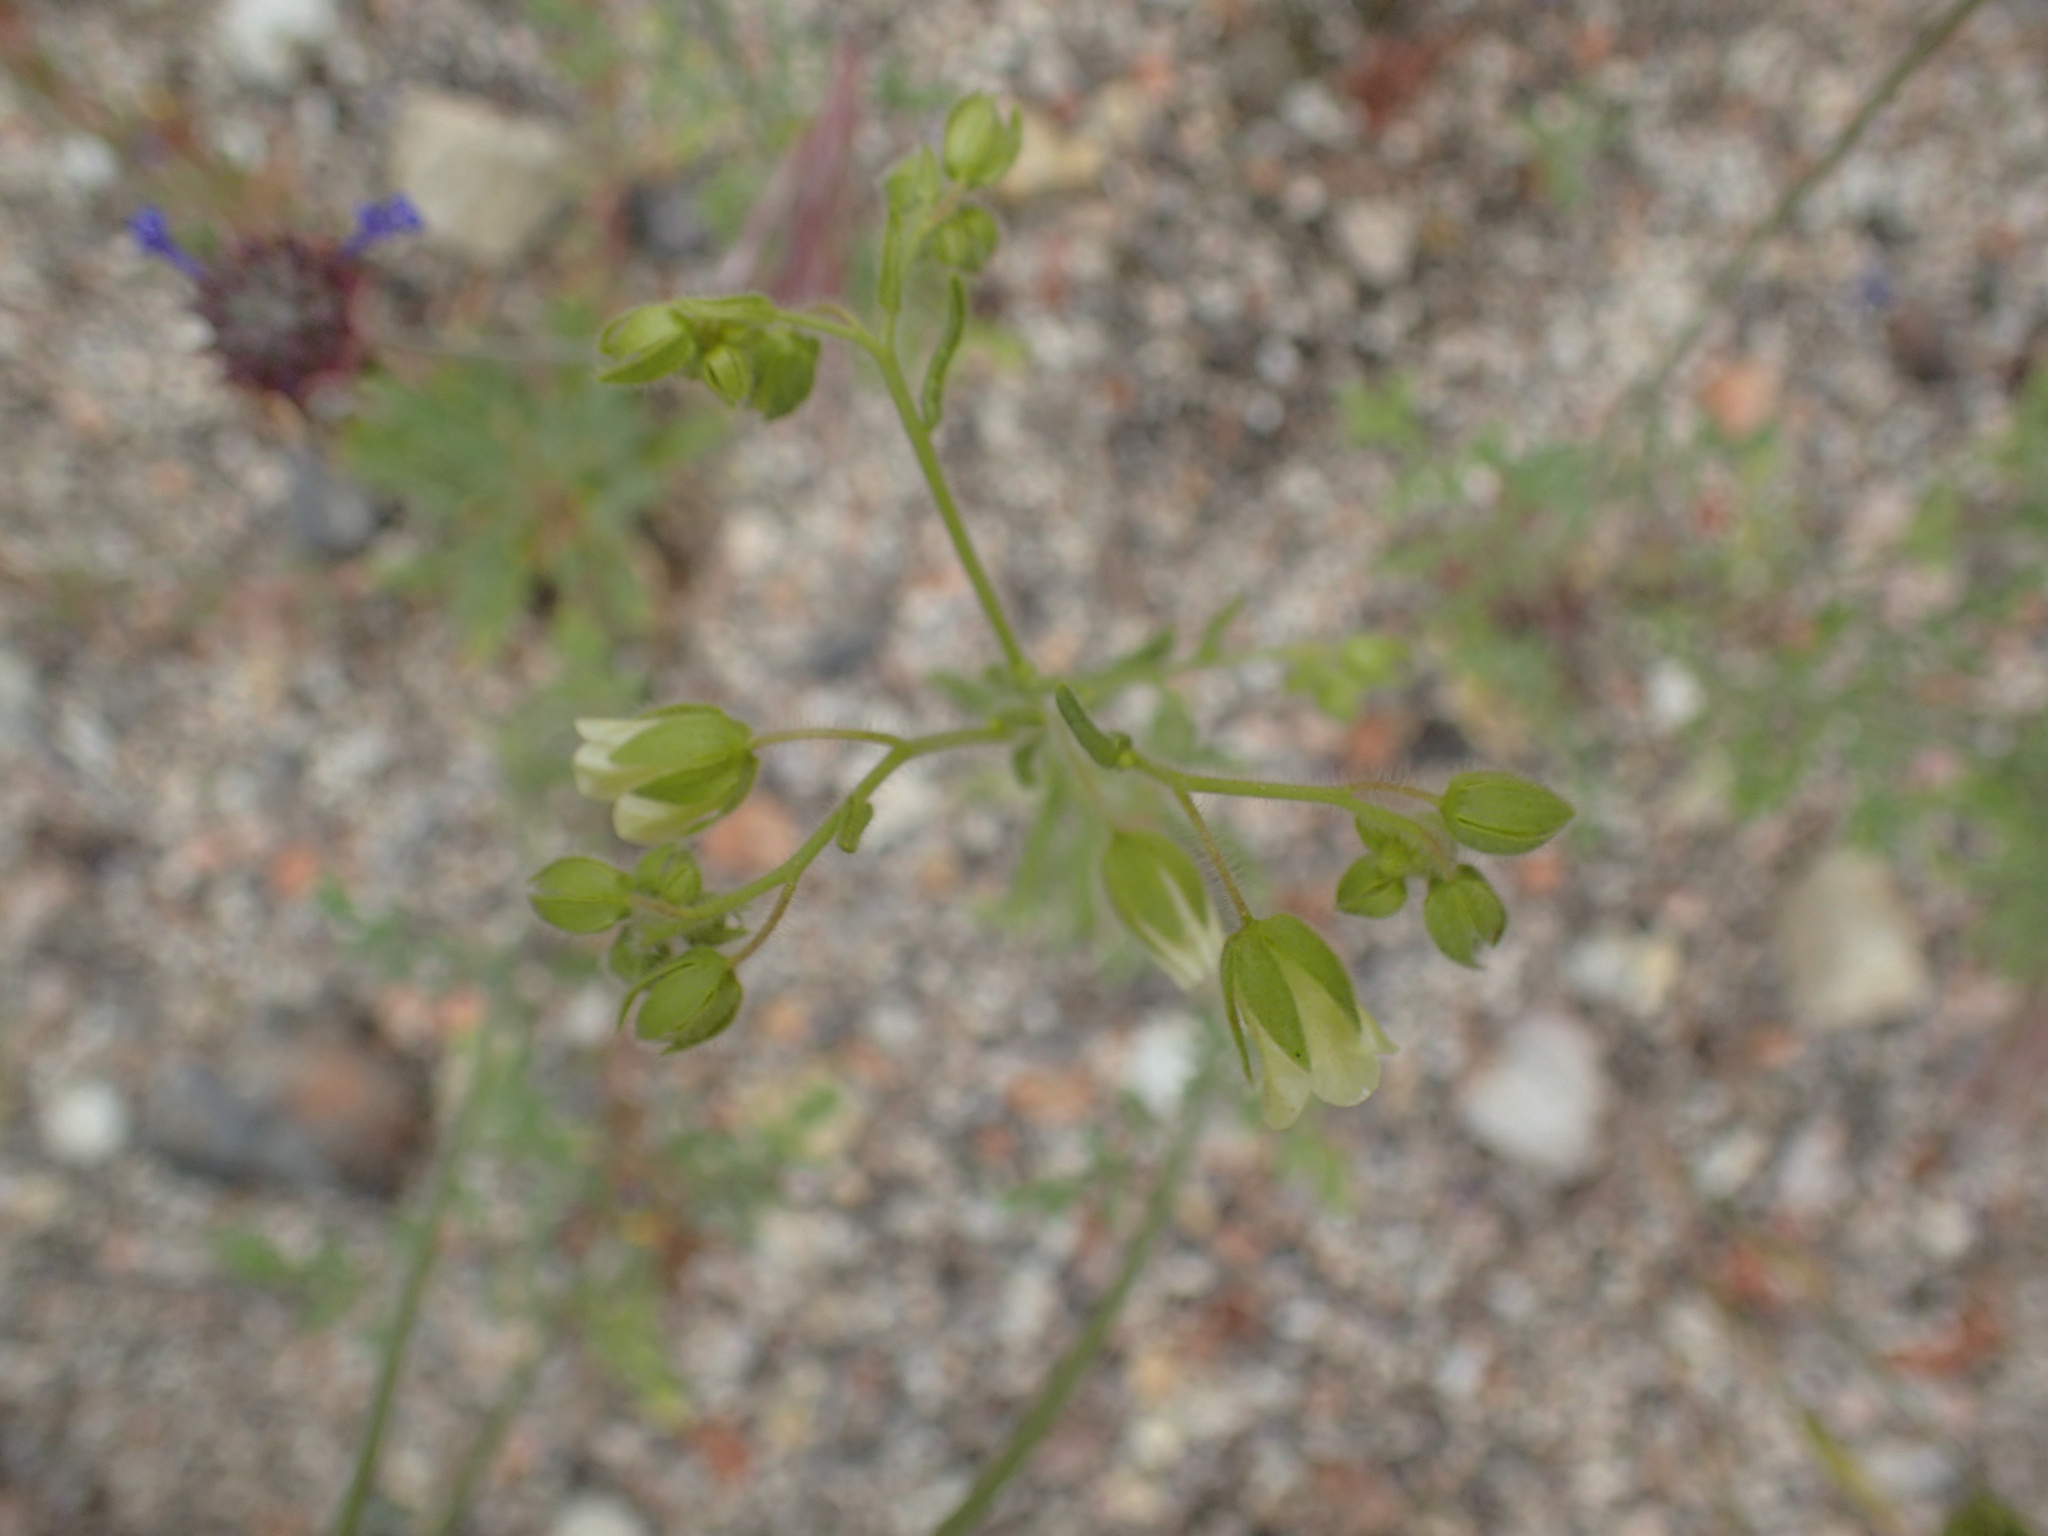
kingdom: Plantae
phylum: Tracheophyta
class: Magnoliopsida
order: Boraginales
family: Hydrophyllaceae
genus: Emmenanthe
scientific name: Emmenanthe penduliflora
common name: Whispering-bells
